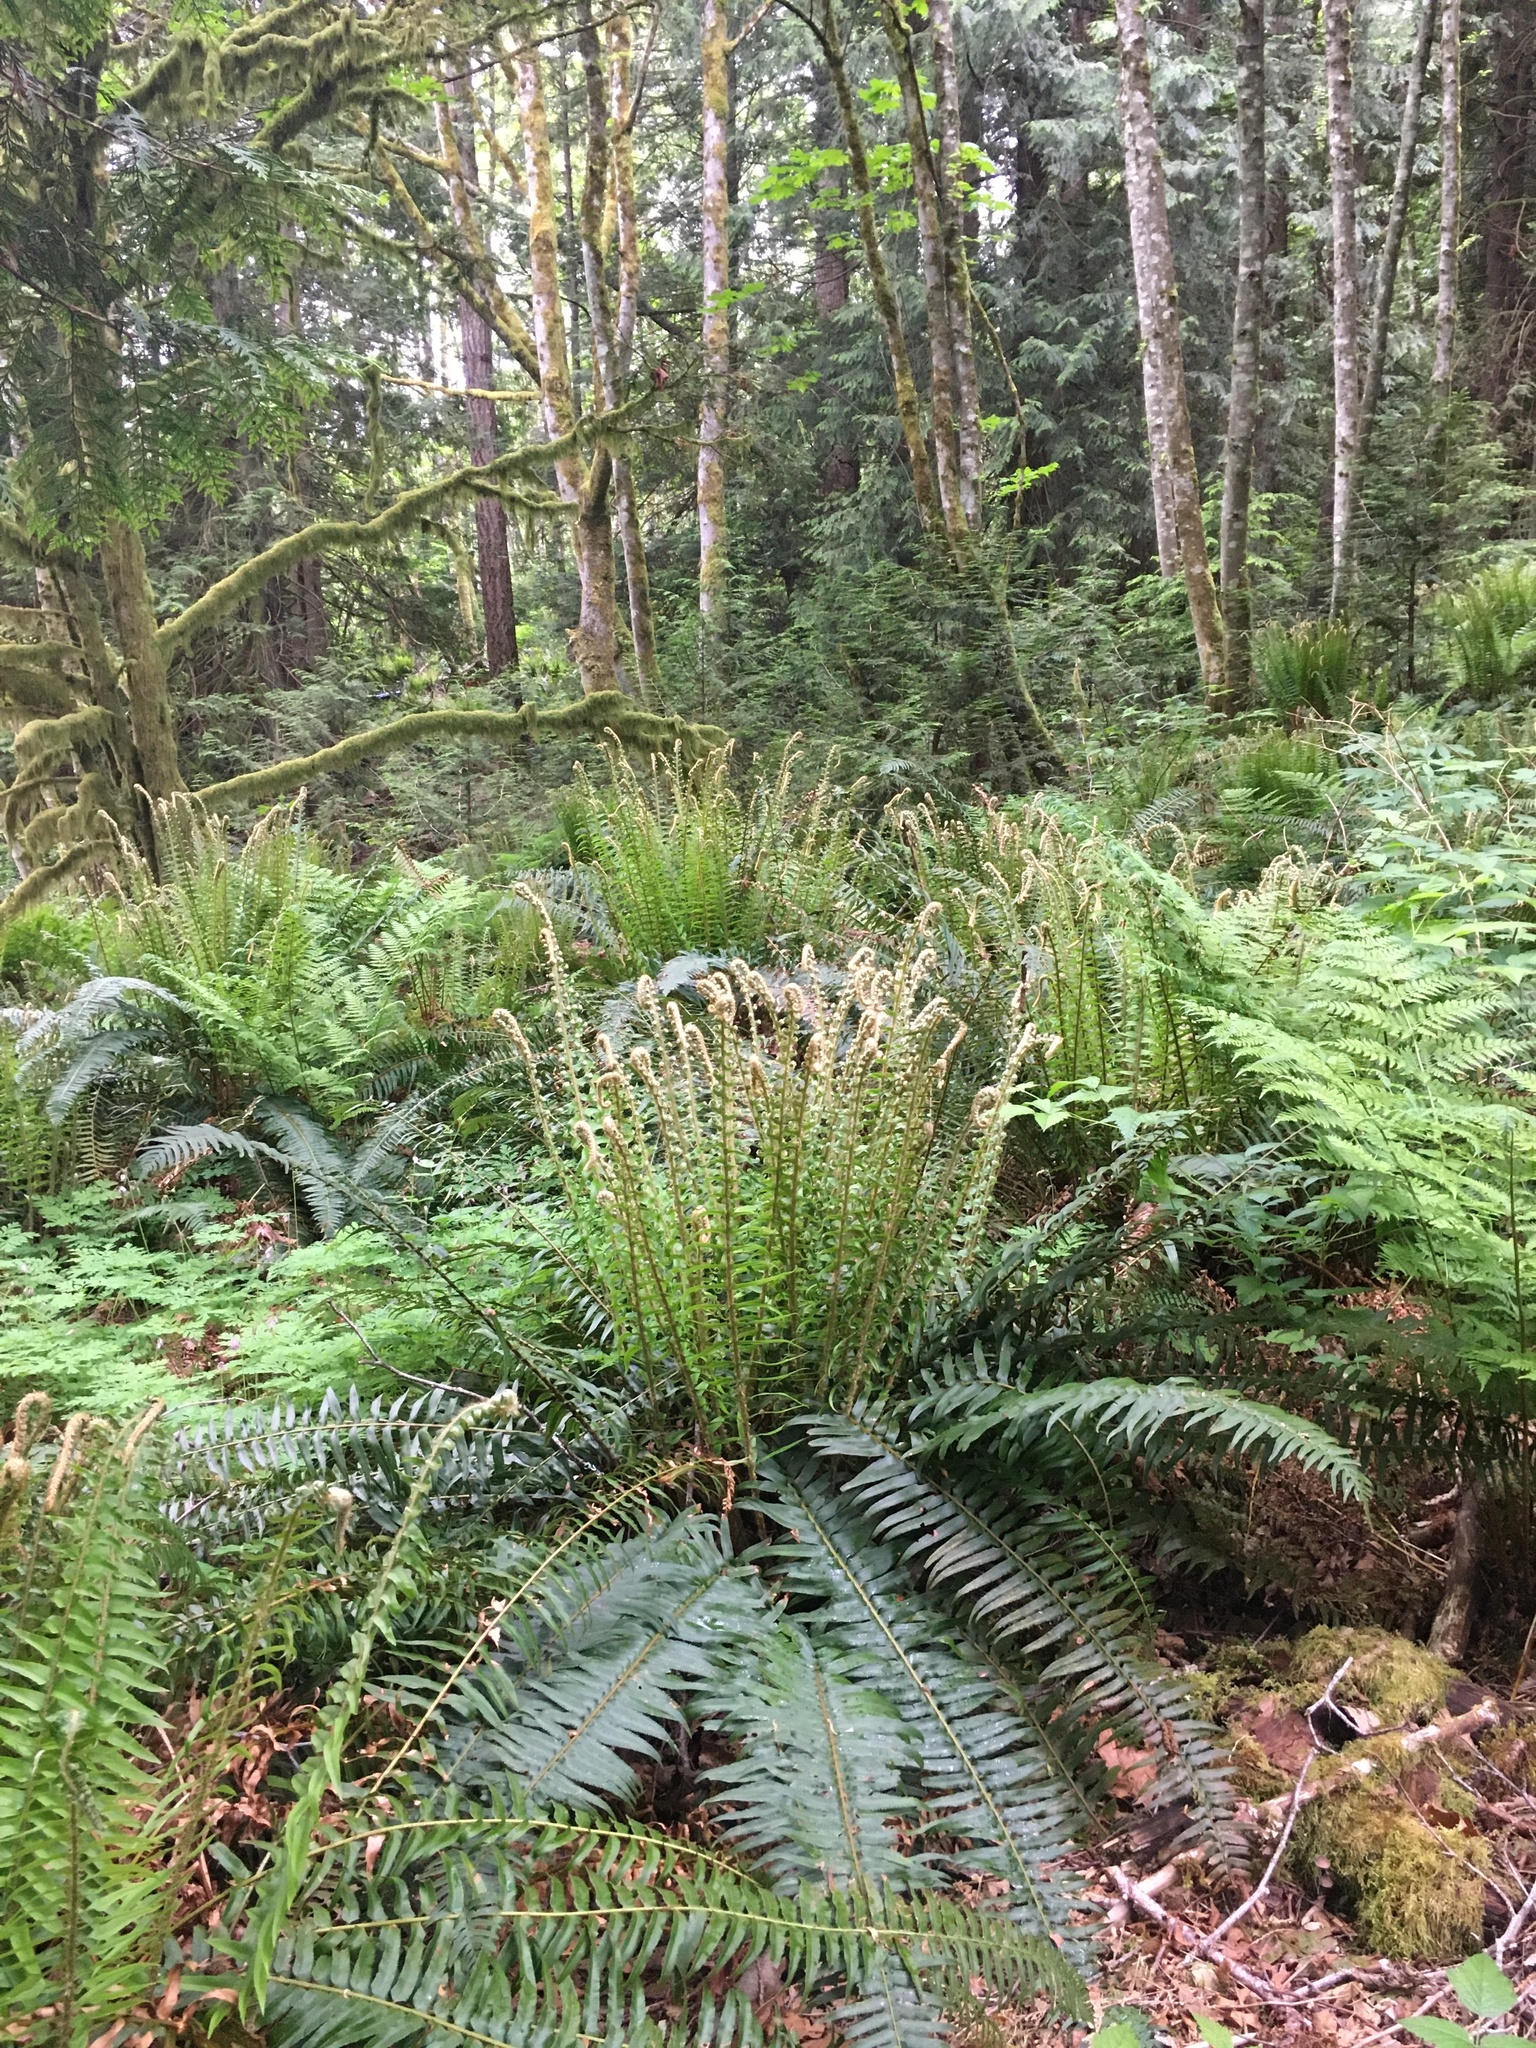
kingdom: Plantae
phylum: Tracheophyta
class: Polypodiopsida
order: Polypodiales
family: Dryopteridaceae
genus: Polystichum
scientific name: Polystichum munitum
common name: Western sword-fern
